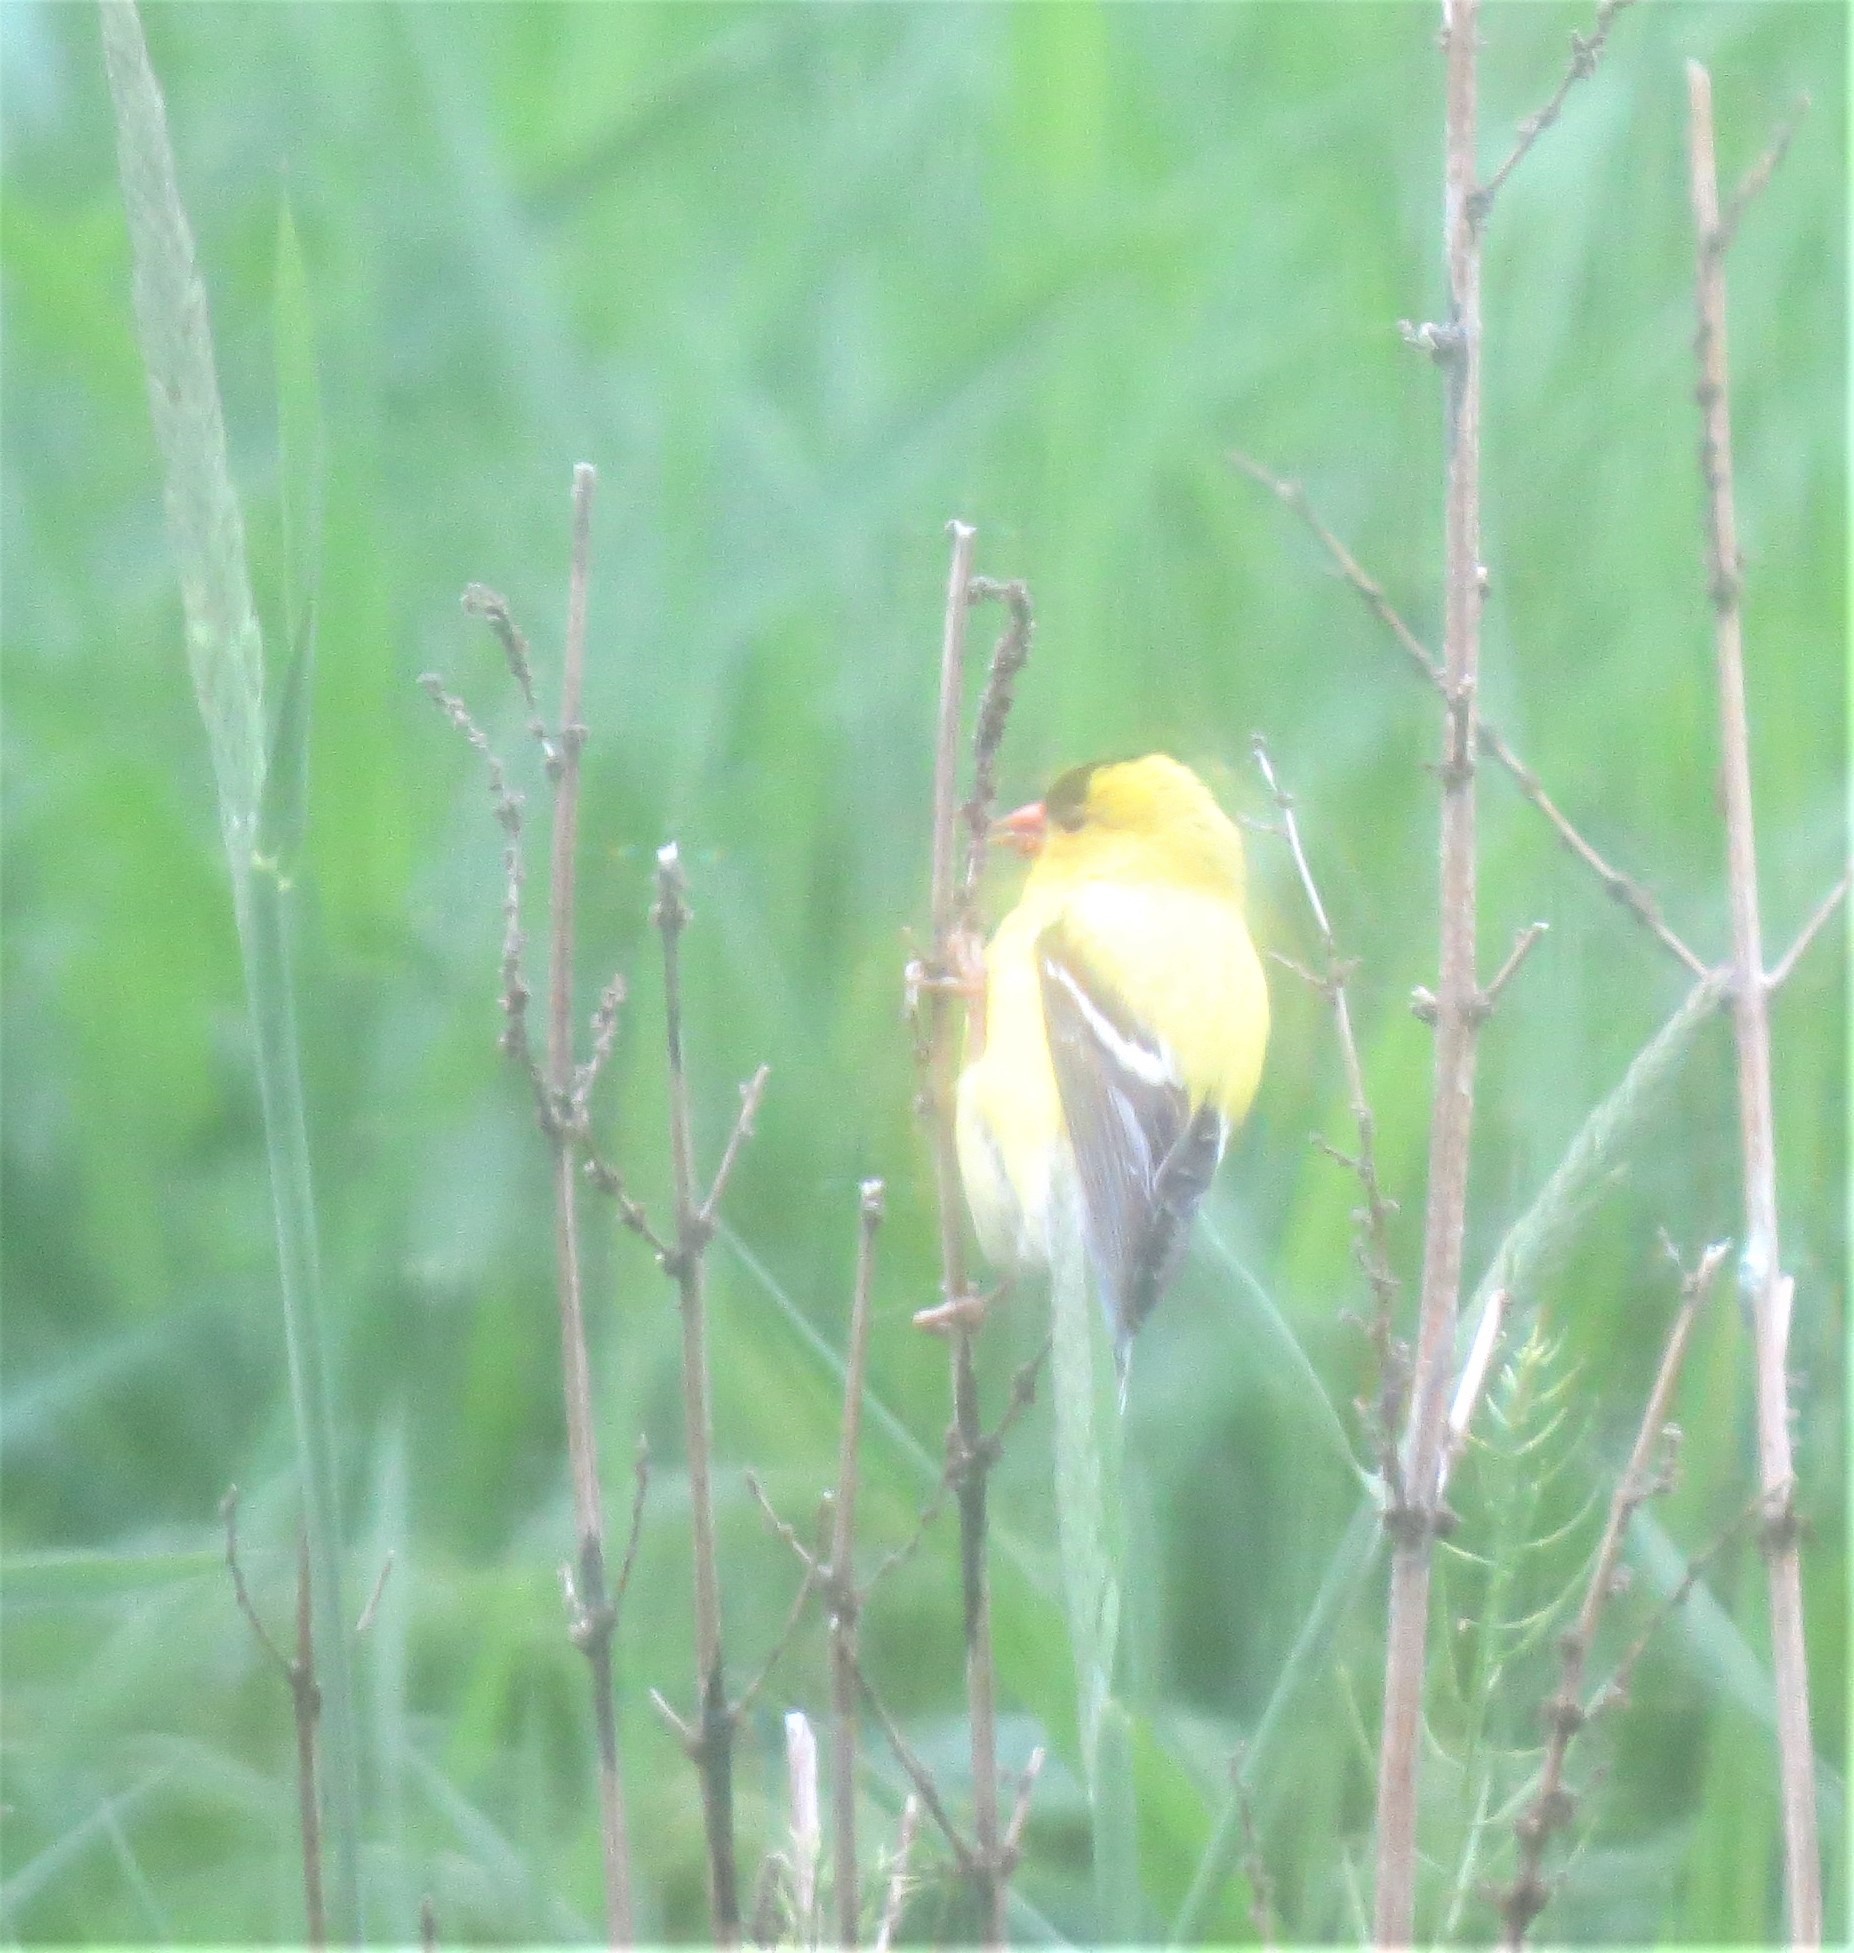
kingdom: Animalia
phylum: Chordata
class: Aves
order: Passeriformes
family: Fringillidae
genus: Spinus
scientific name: Spinus tristis
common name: American goldfinch
